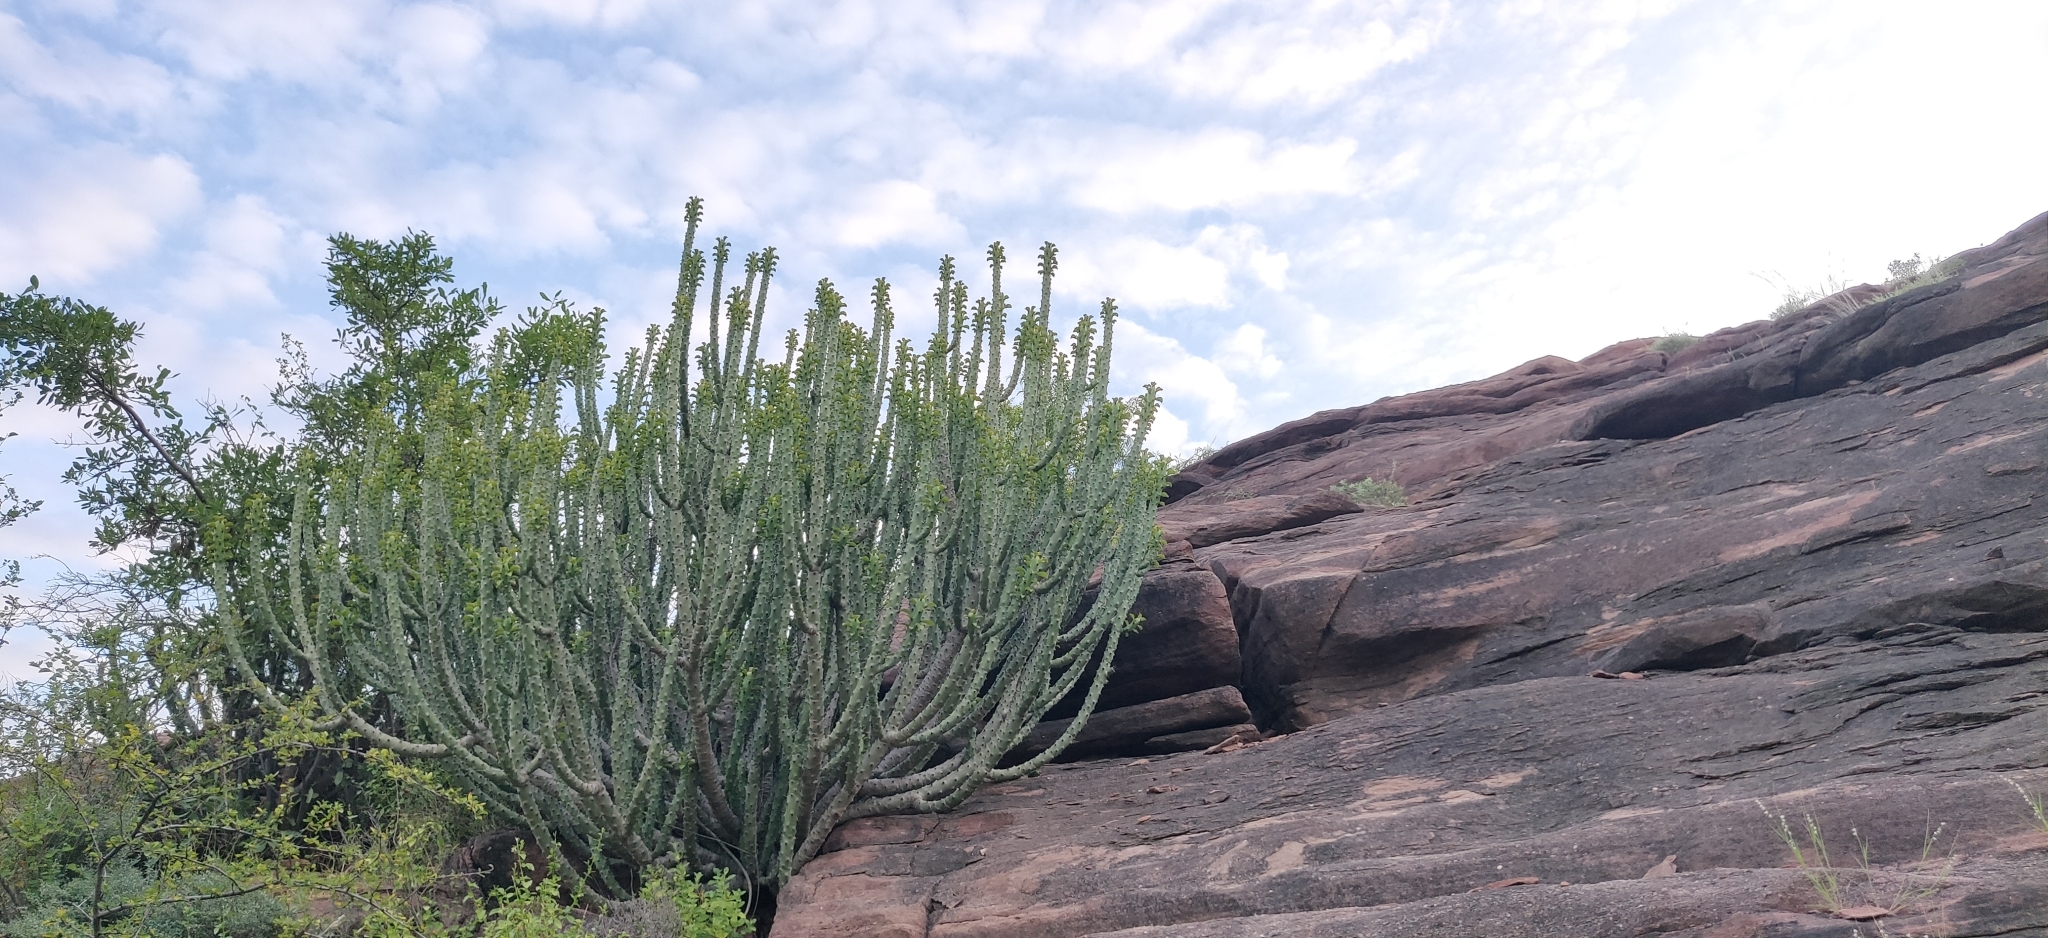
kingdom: Plantae
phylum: Tracheophyta
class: Magnoliopsida
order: Malpighiales
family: Euphorbiaceae
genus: Euphorbia
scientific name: Euphorbia caducifolia
